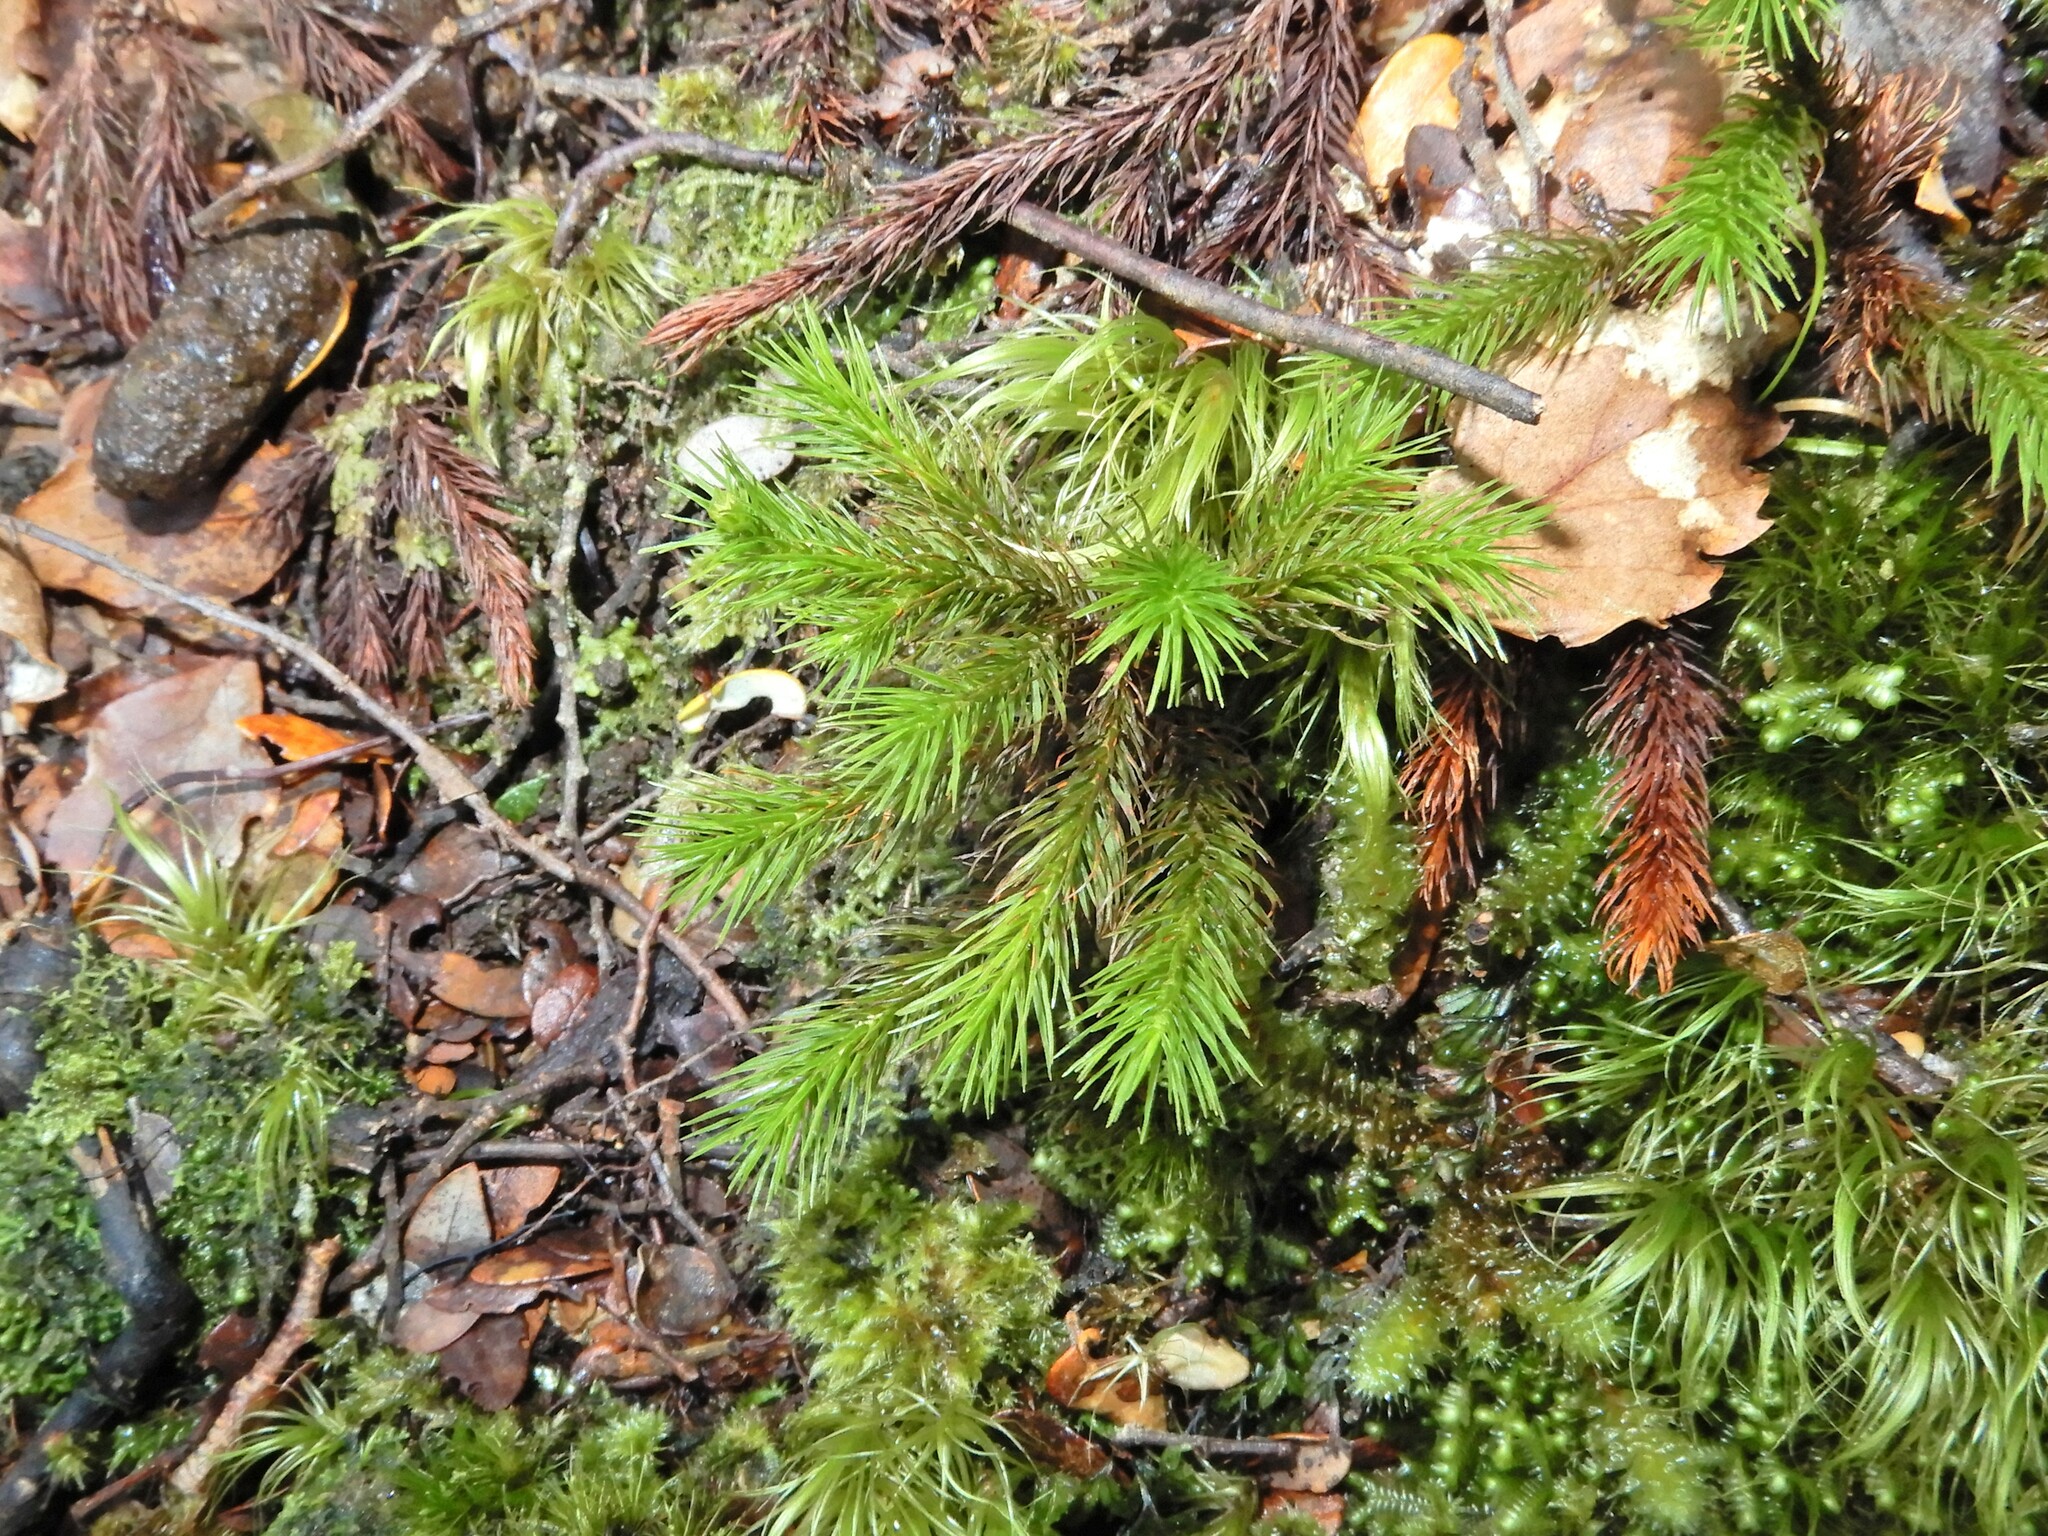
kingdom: Plantae
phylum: Bryophyta
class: Polytrichopsida
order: Polytrichales
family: Polytrichaceae
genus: Dendroligotrichum
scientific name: Dendroligotrichum tongariroense
